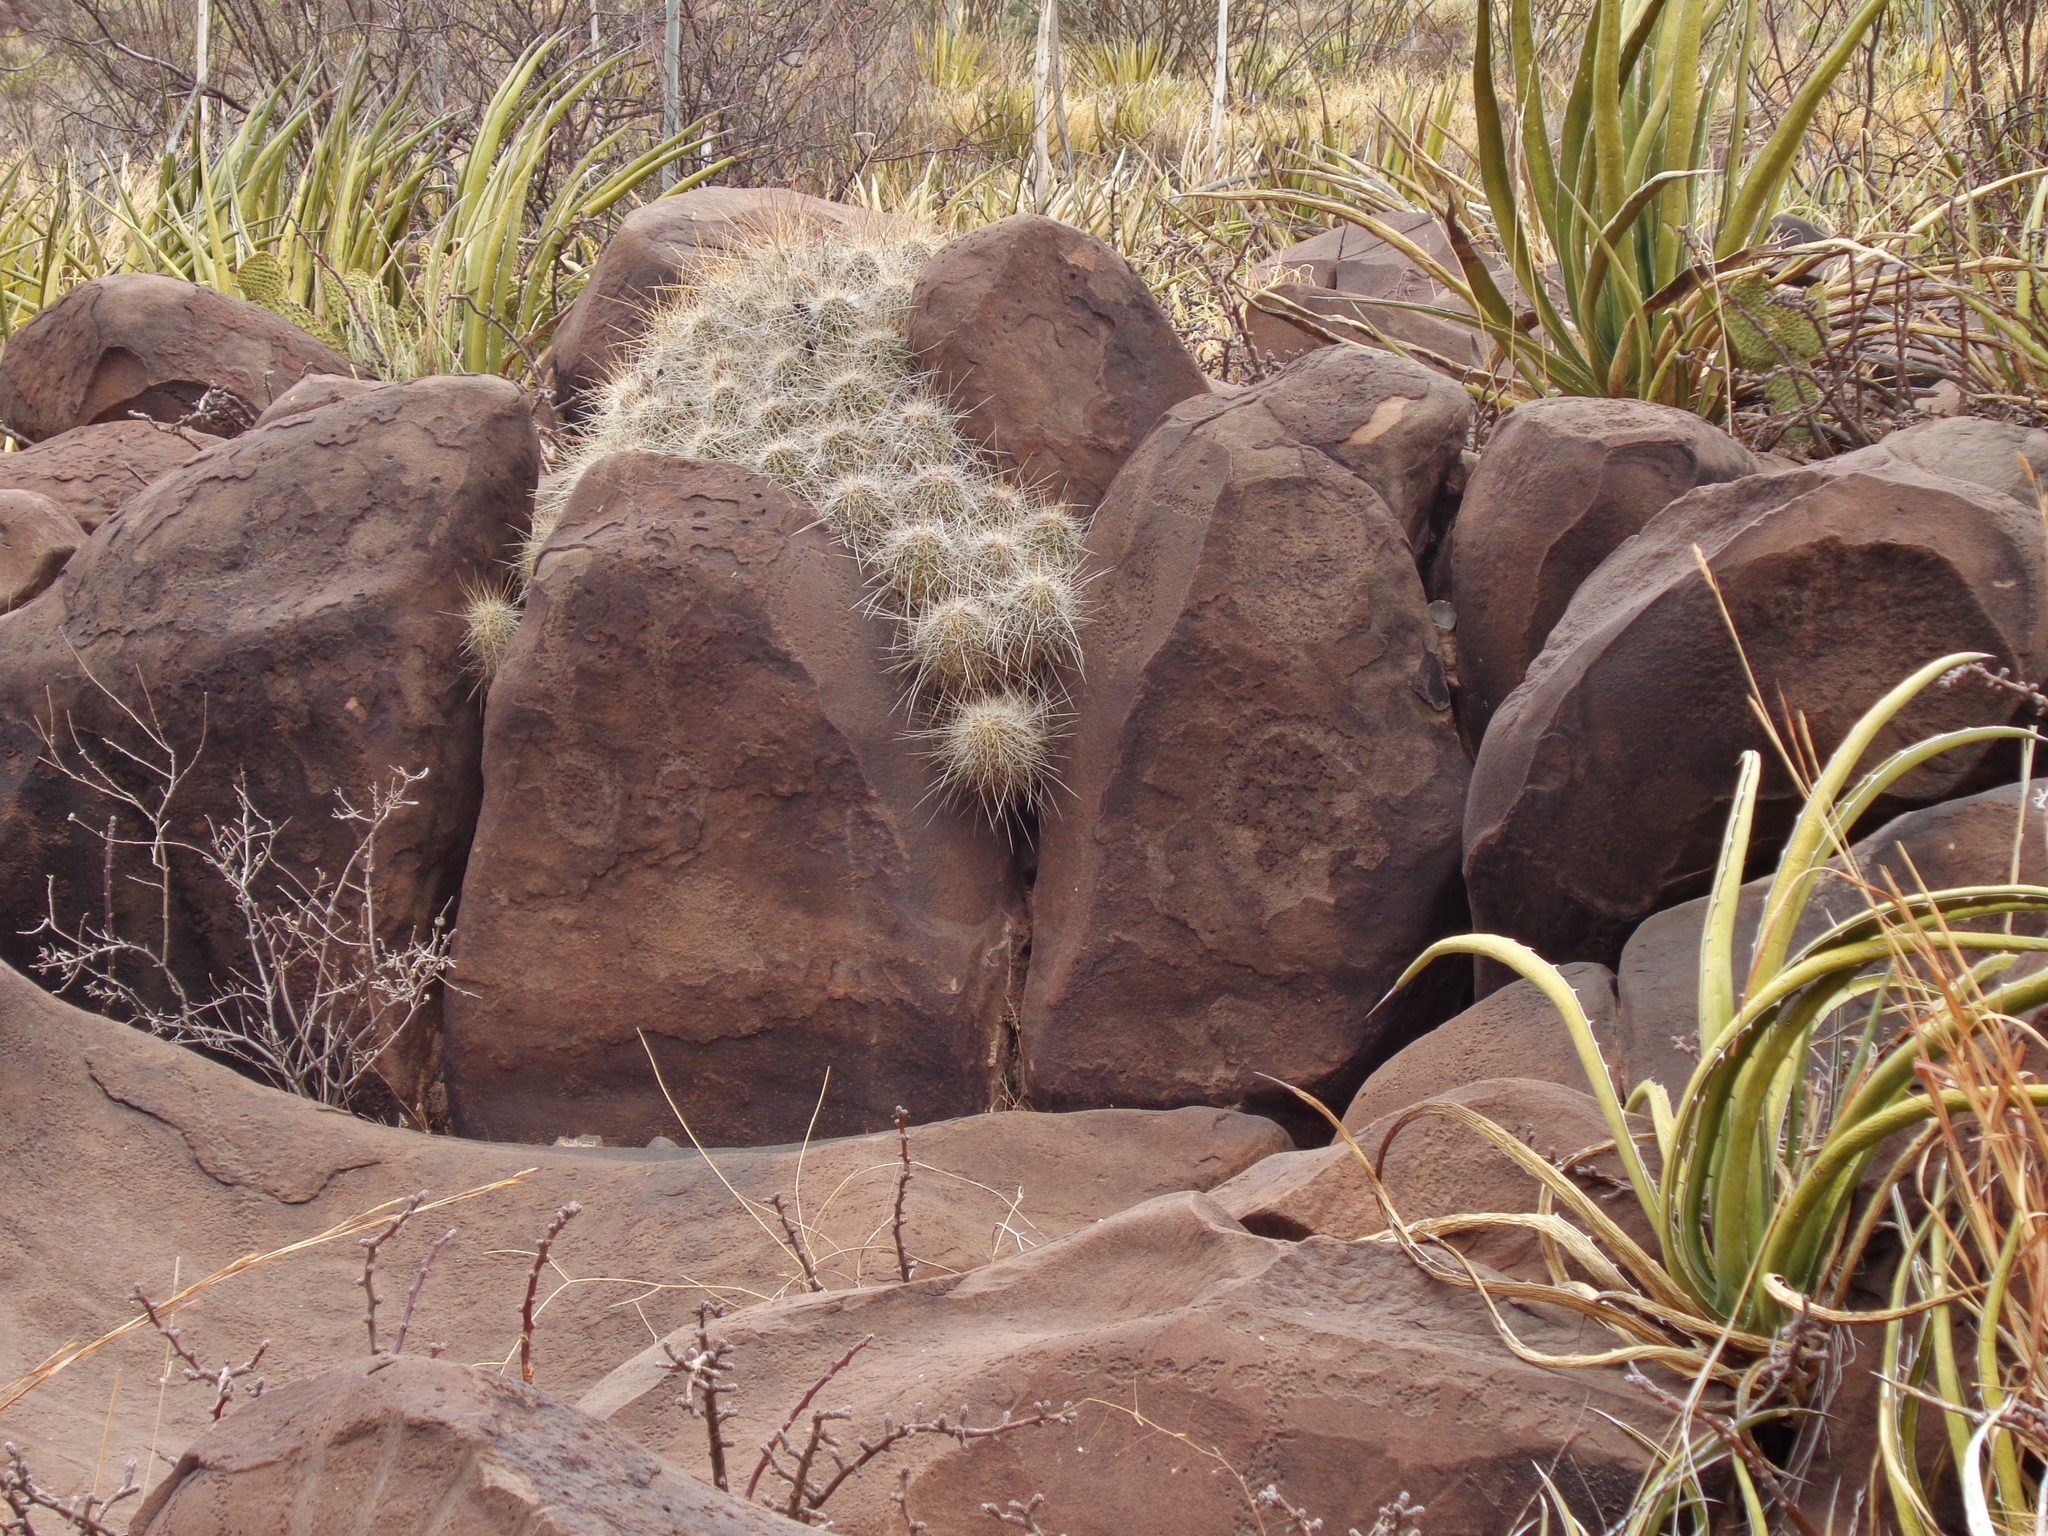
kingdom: Plantae
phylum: Tracheophyta
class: Magnoliopsida
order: Caryophyllales
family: Cactaceae
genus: Echinocereus
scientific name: Echinocereus stramineus
